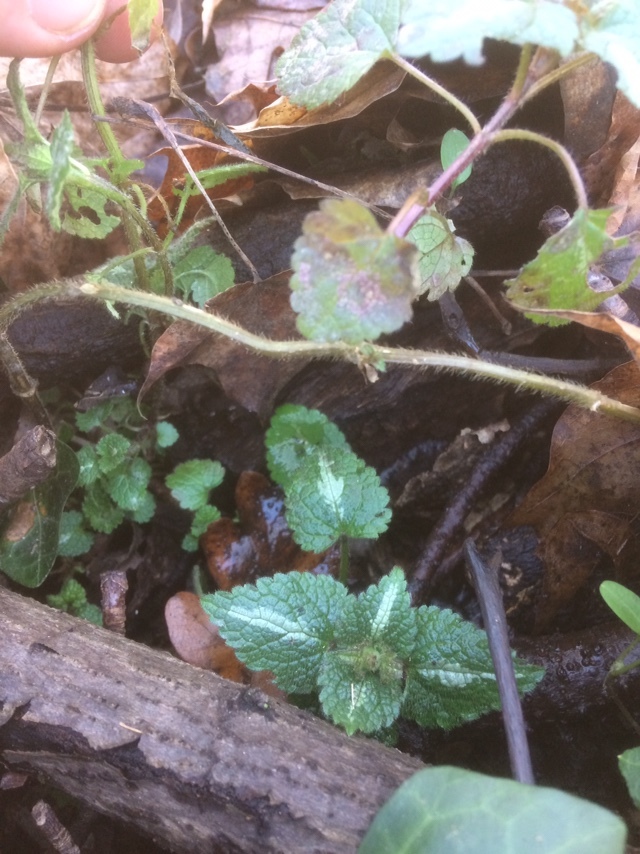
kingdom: Plantae
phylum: Tracheophyta
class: Magnoliopsida
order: Lamiales
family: Lamiaceae
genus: Lamium
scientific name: Lamium maculatum
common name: Spotted dead-nettle
